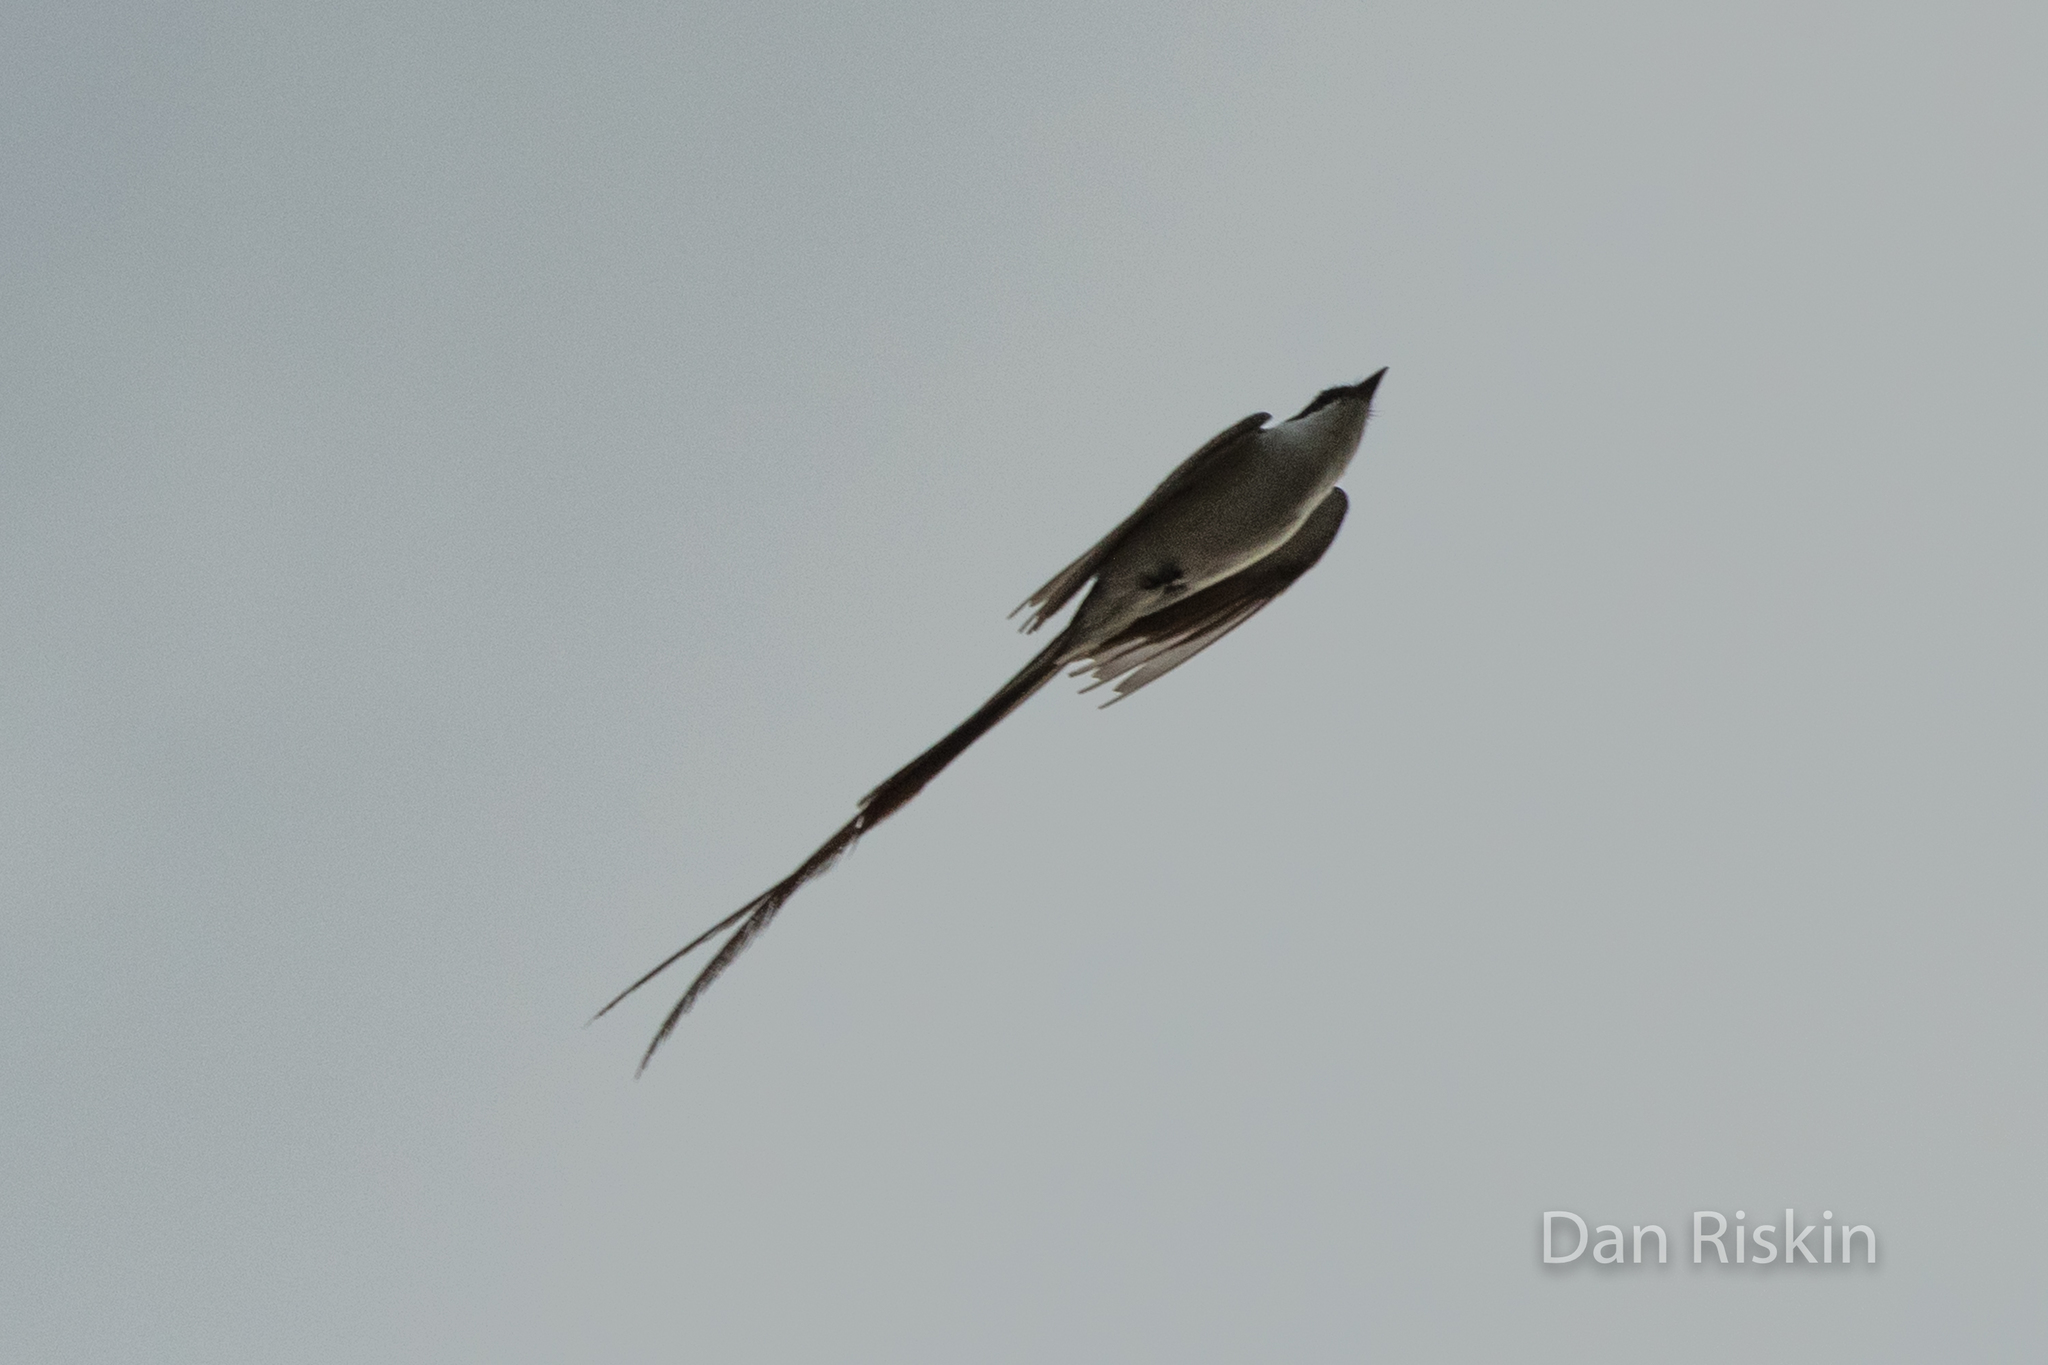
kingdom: Animalia
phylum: Chordata
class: Aves
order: Passeriformes
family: Tyrannidae
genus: Tyrannus
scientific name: Tyrannus savana
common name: Fork-tailed flycatcher
